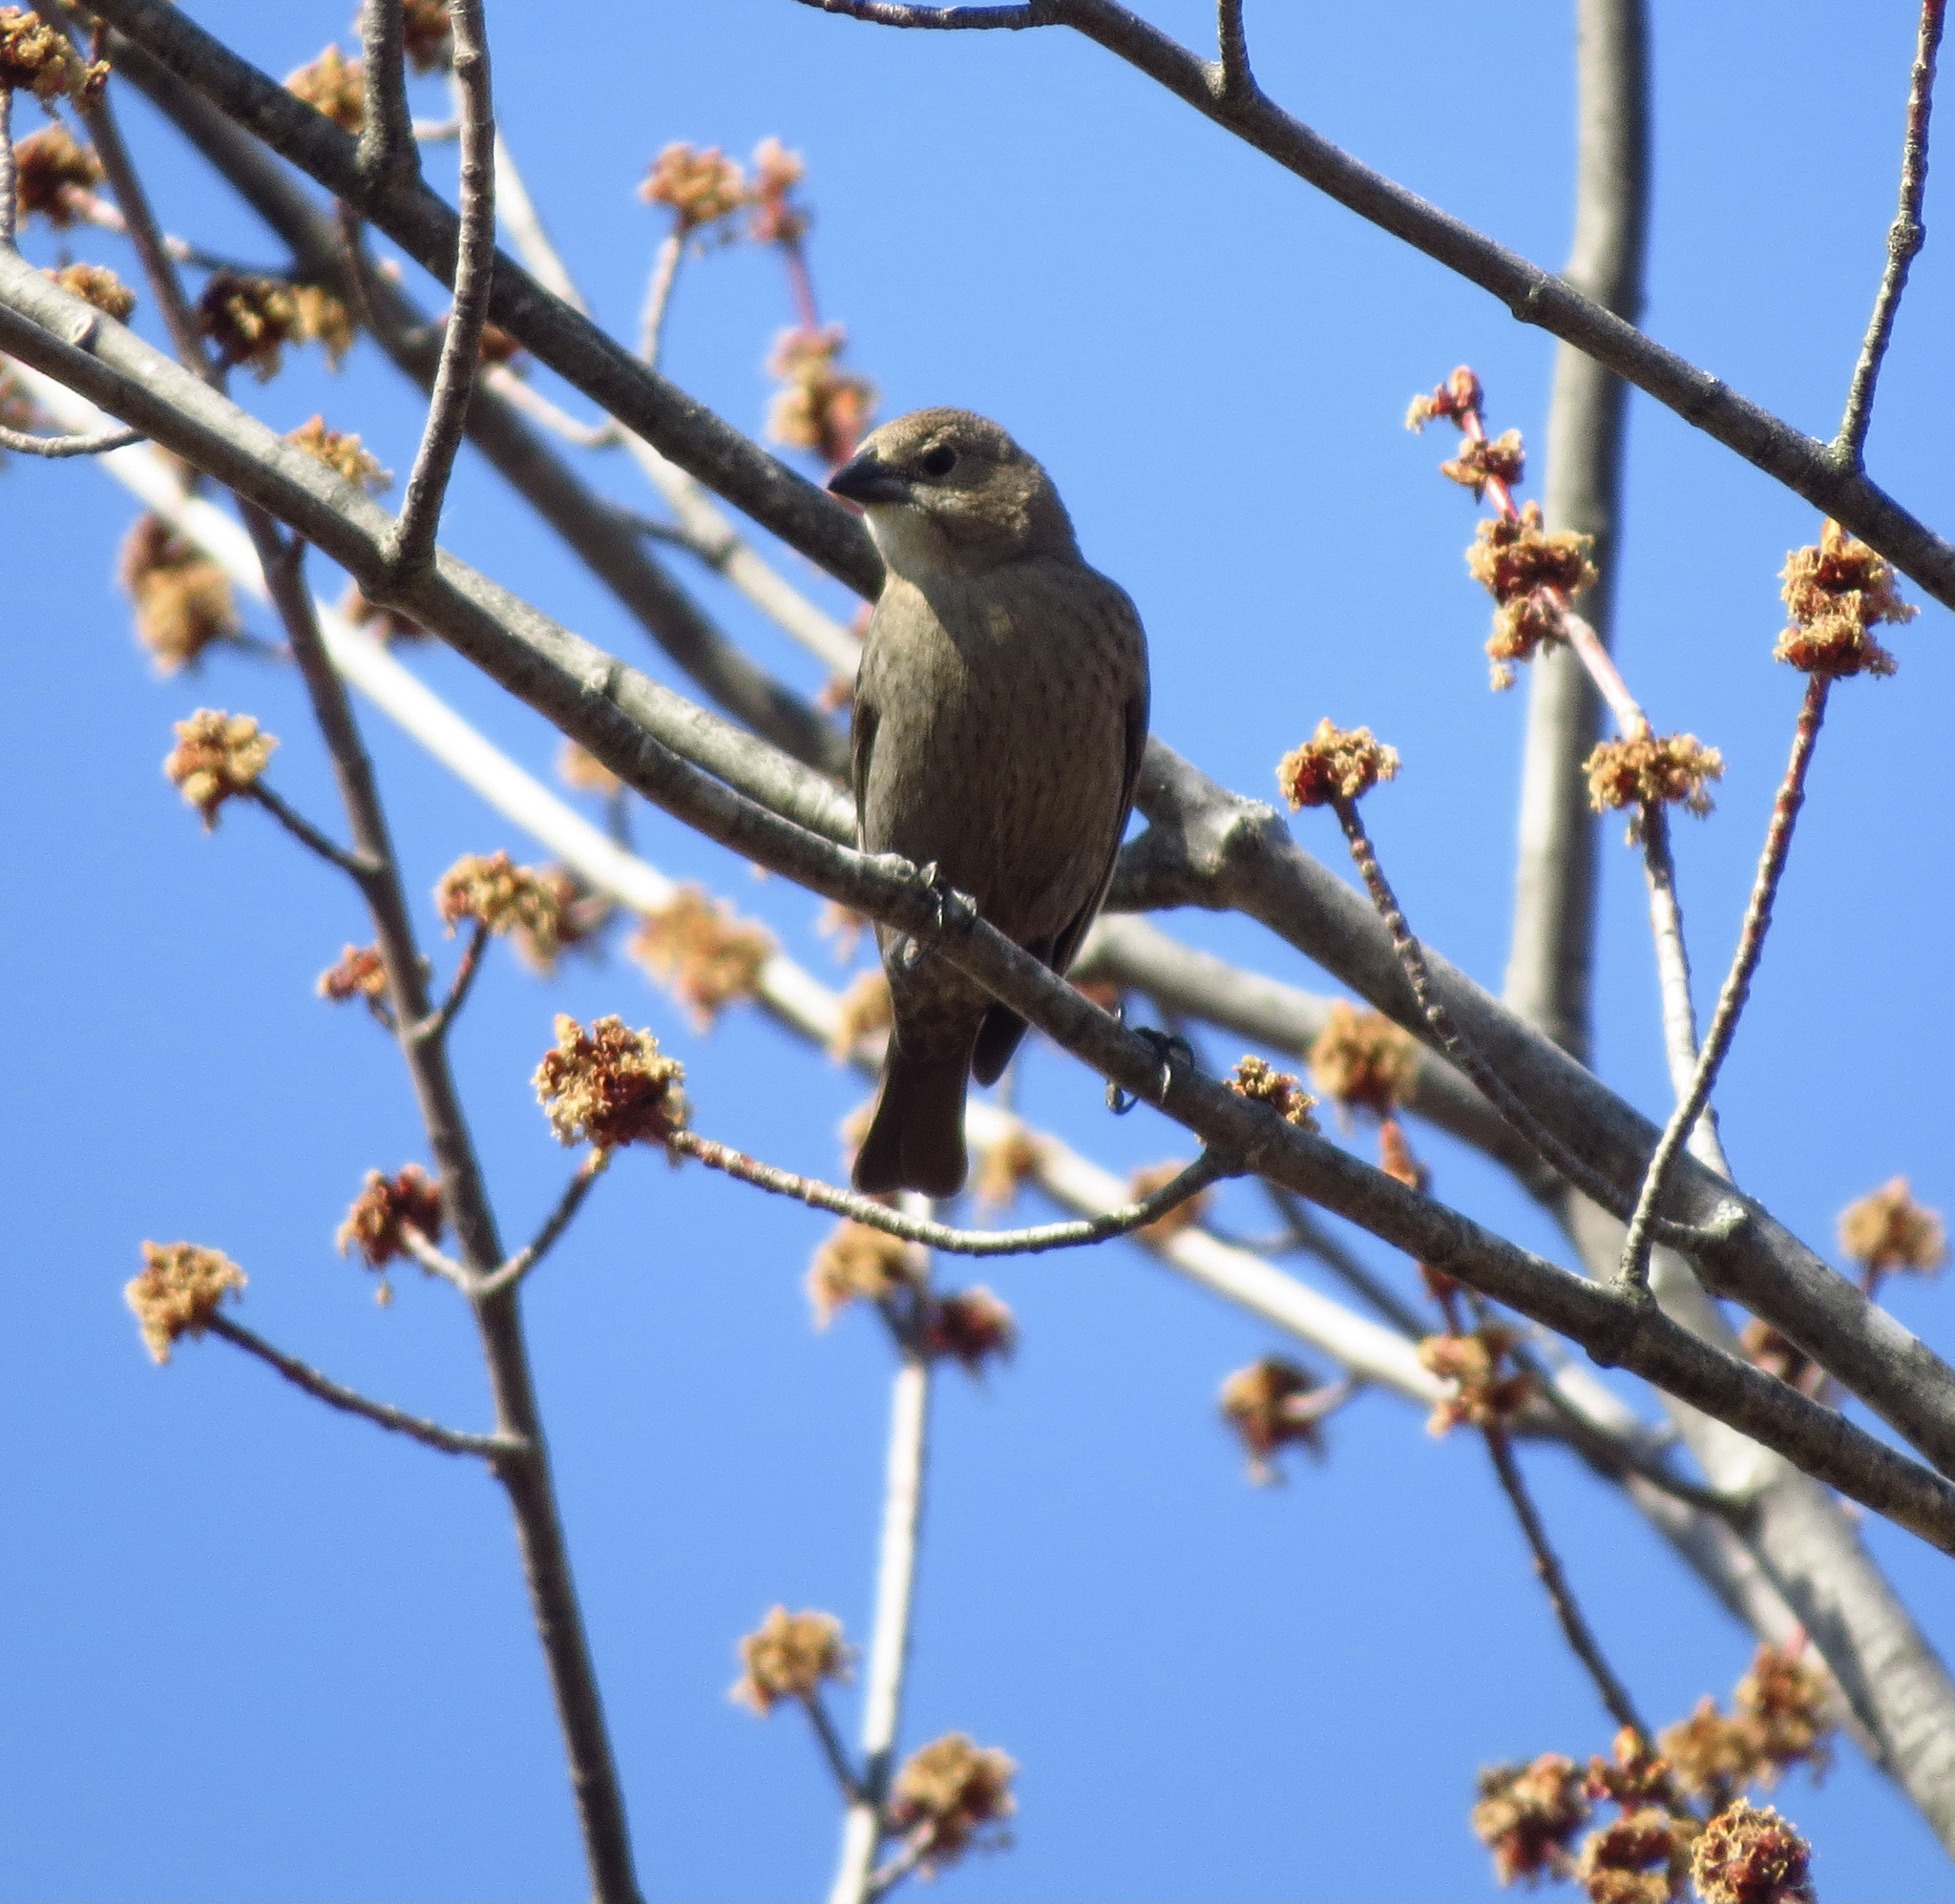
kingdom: Animalia
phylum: Chordata
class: Aves
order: Passeriformes
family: Icteridae
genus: Molothrus
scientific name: Molothrus ater
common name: Brown-headed cowbird
